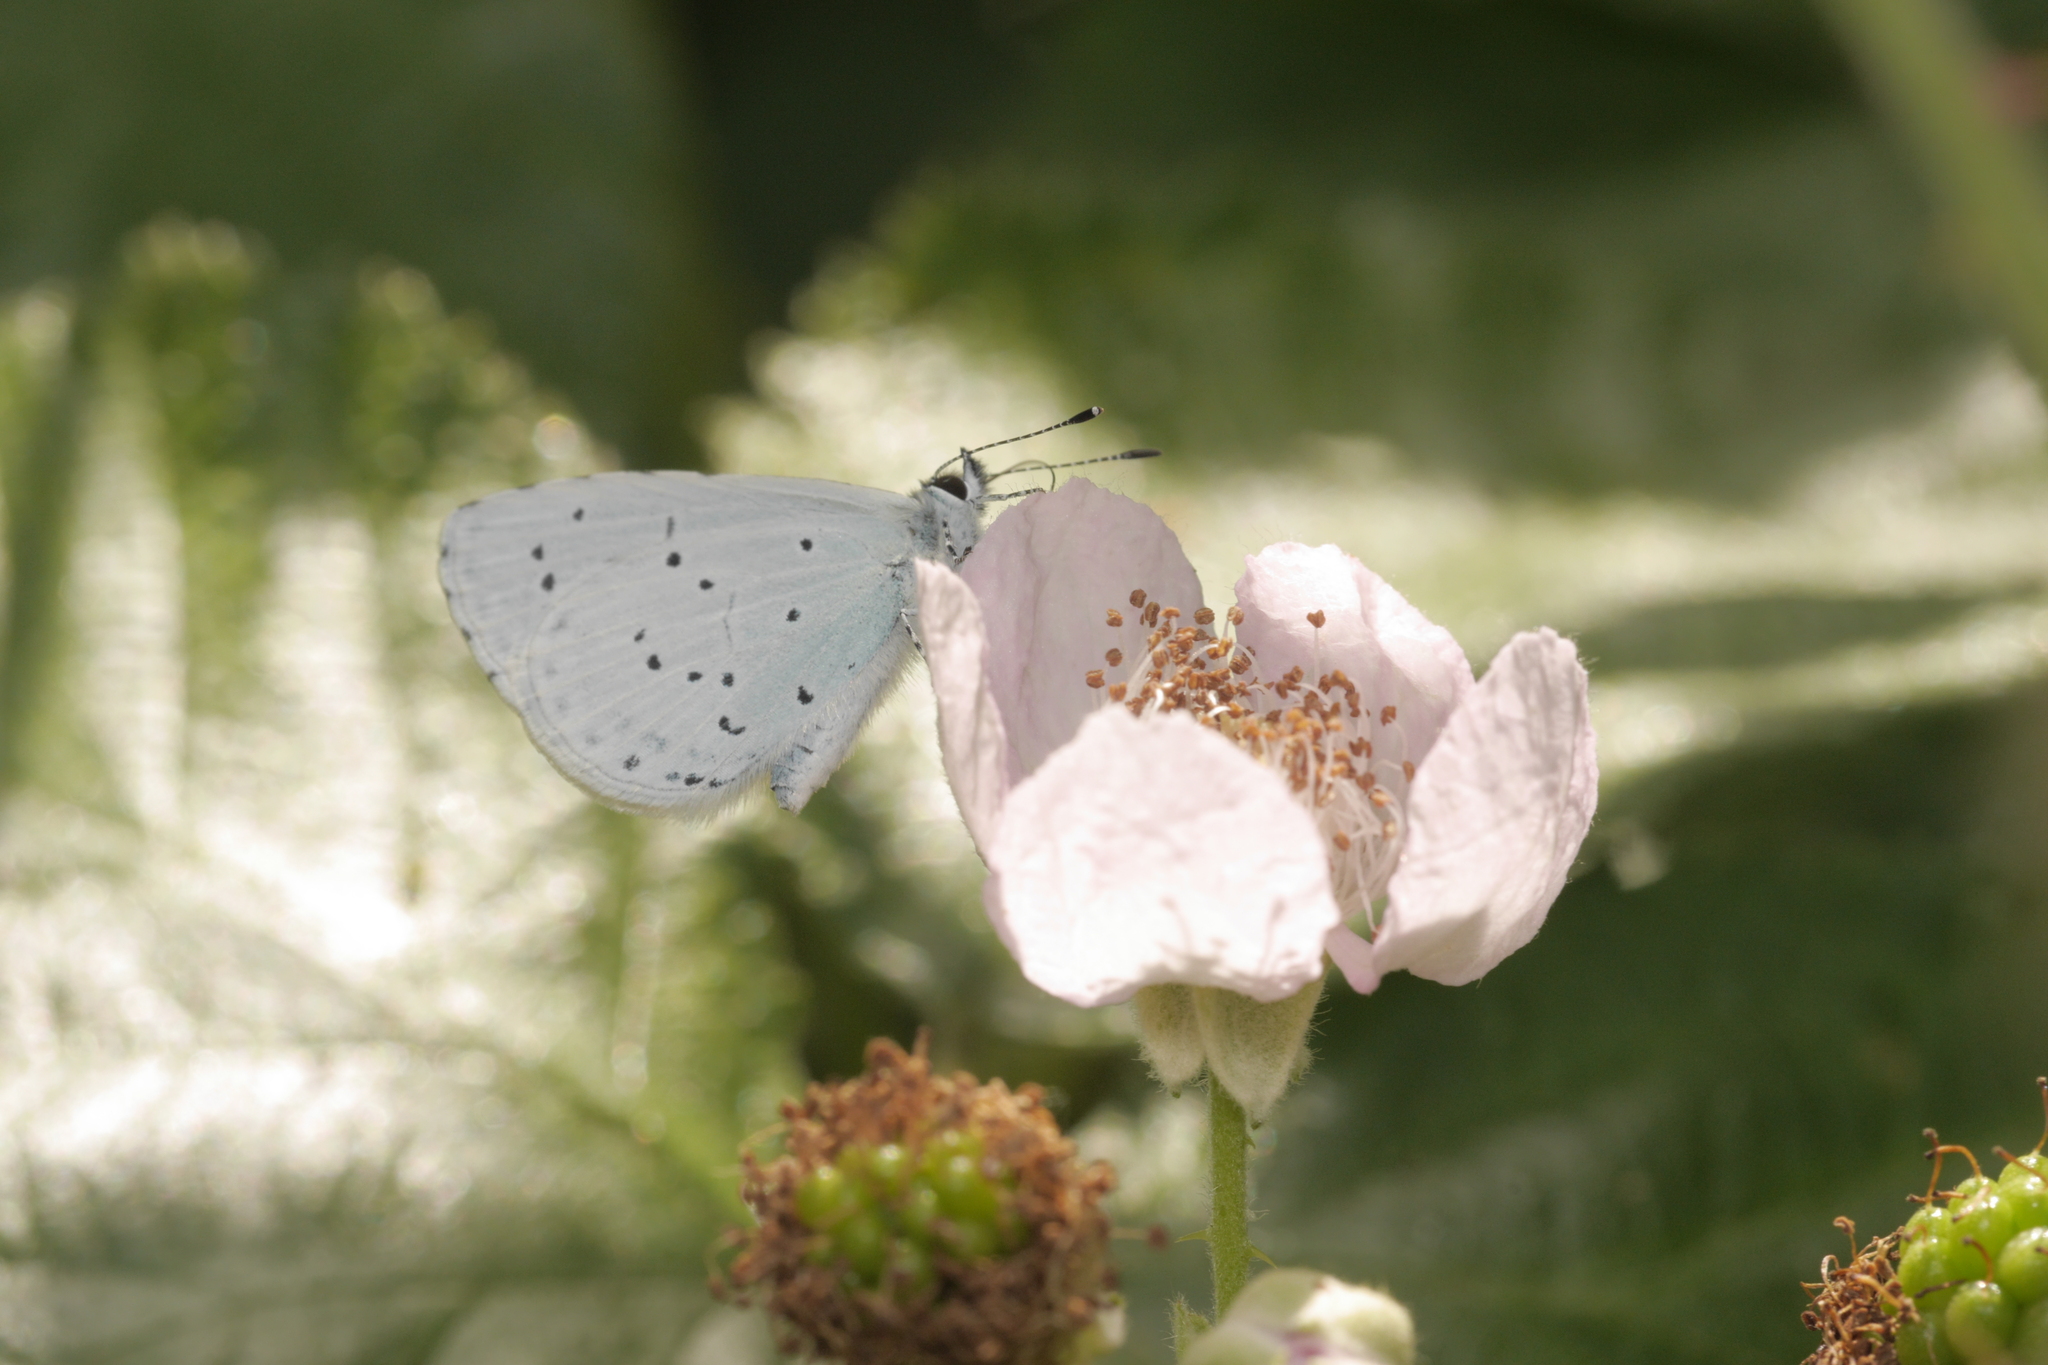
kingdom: Animalia
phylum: Arthropoda
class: Insecta
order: Lepidoptera
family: Lycaenidae
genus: Celastrina
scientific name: Celastrina argiolus
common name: Holly blue
